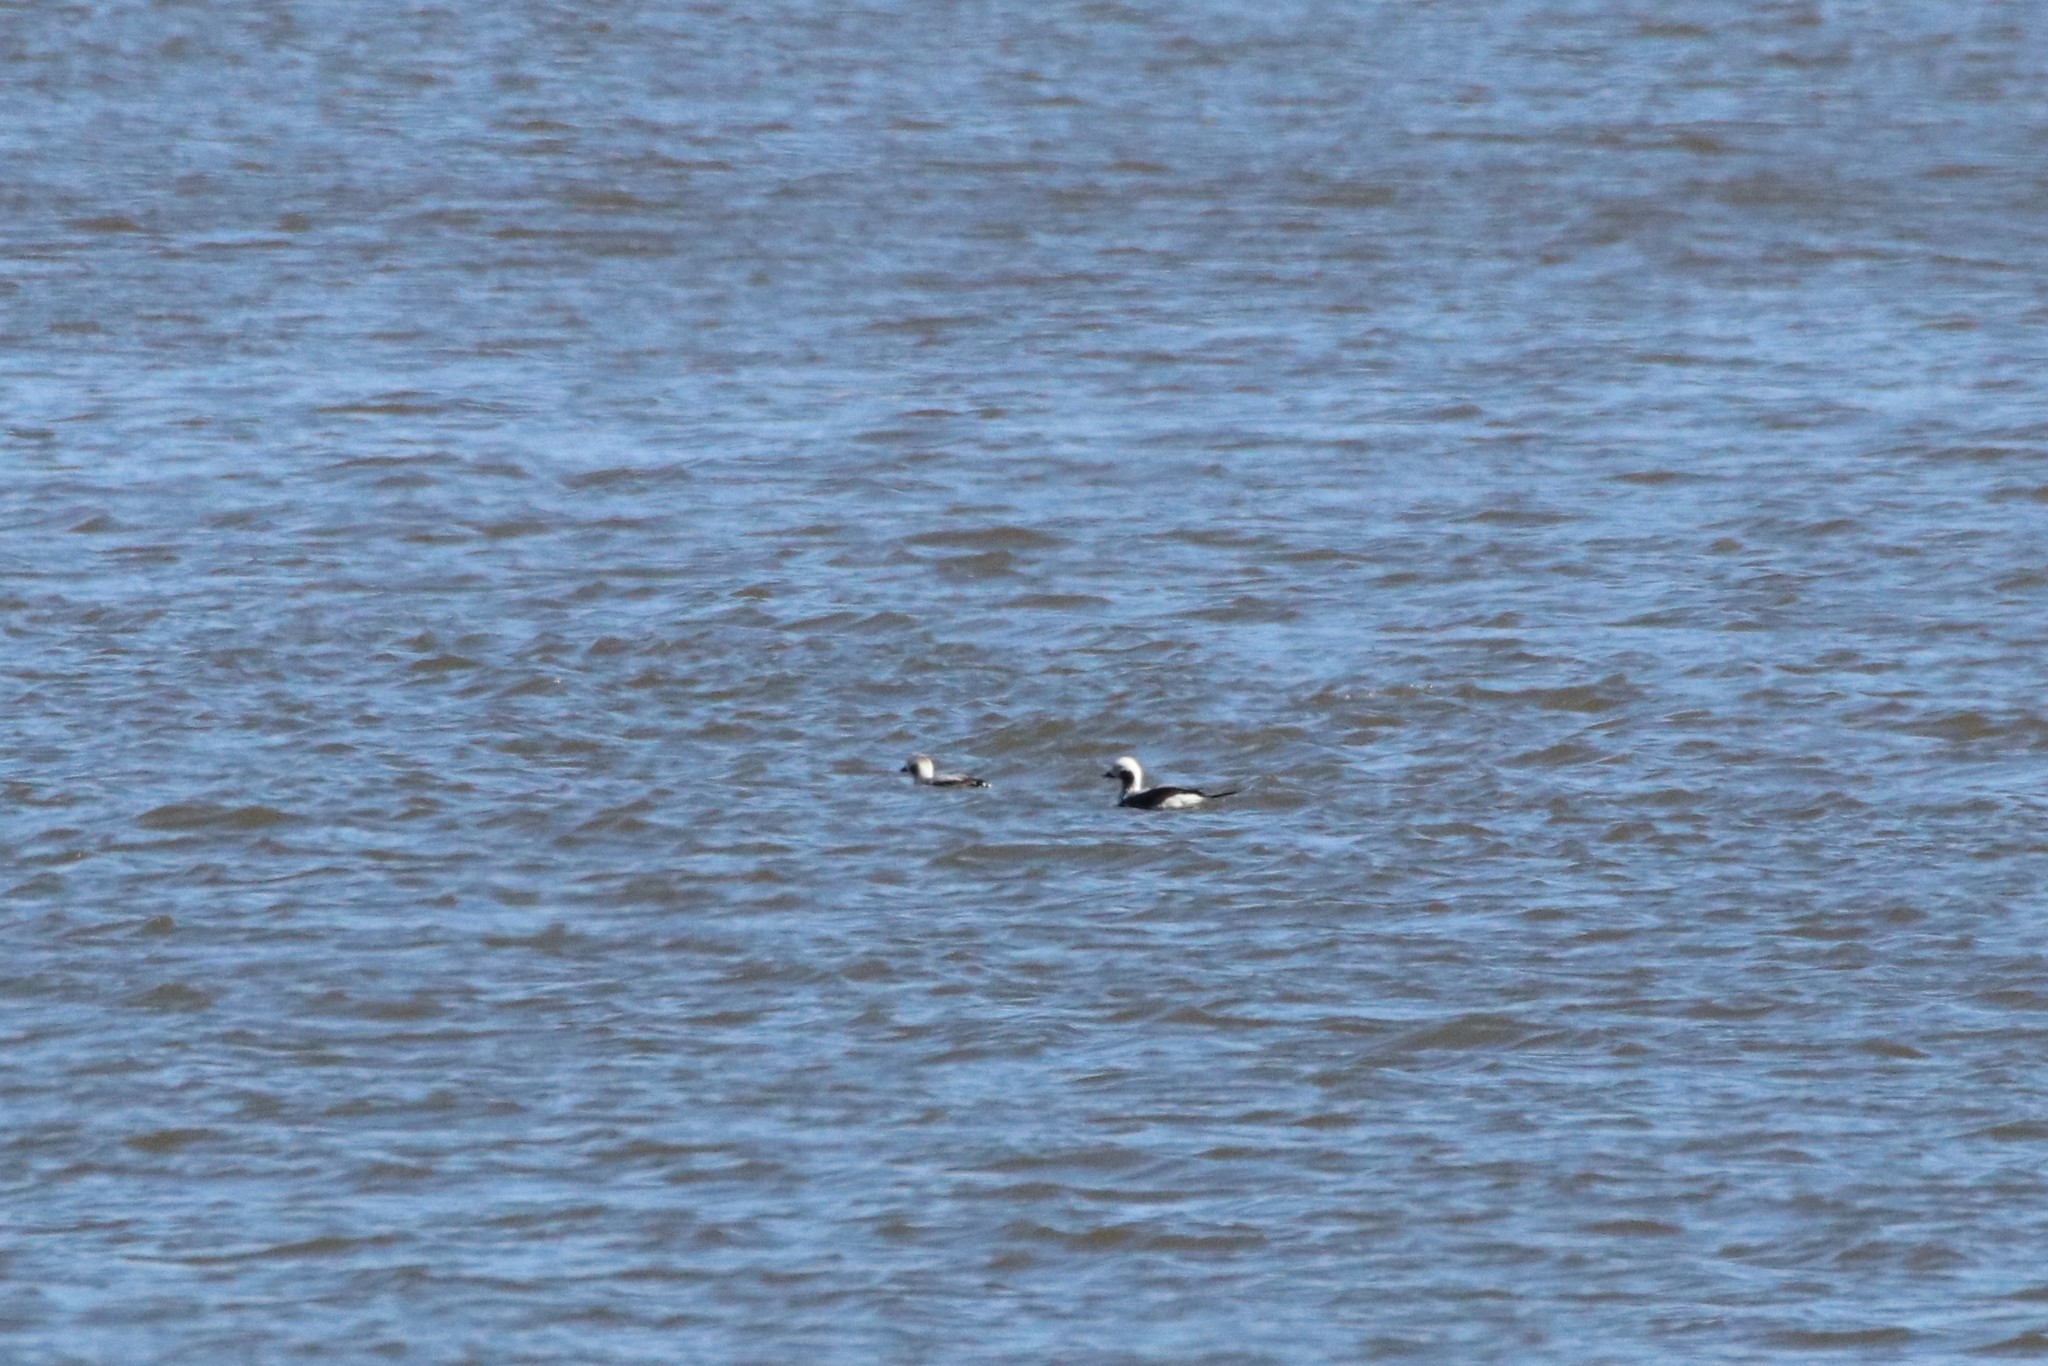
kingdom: Animalia
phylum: Chordata
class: Aves
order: Anseriformes
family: Anatidae
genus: Clangula
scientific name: Clangula hyemalis
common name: Long-tailed duck
